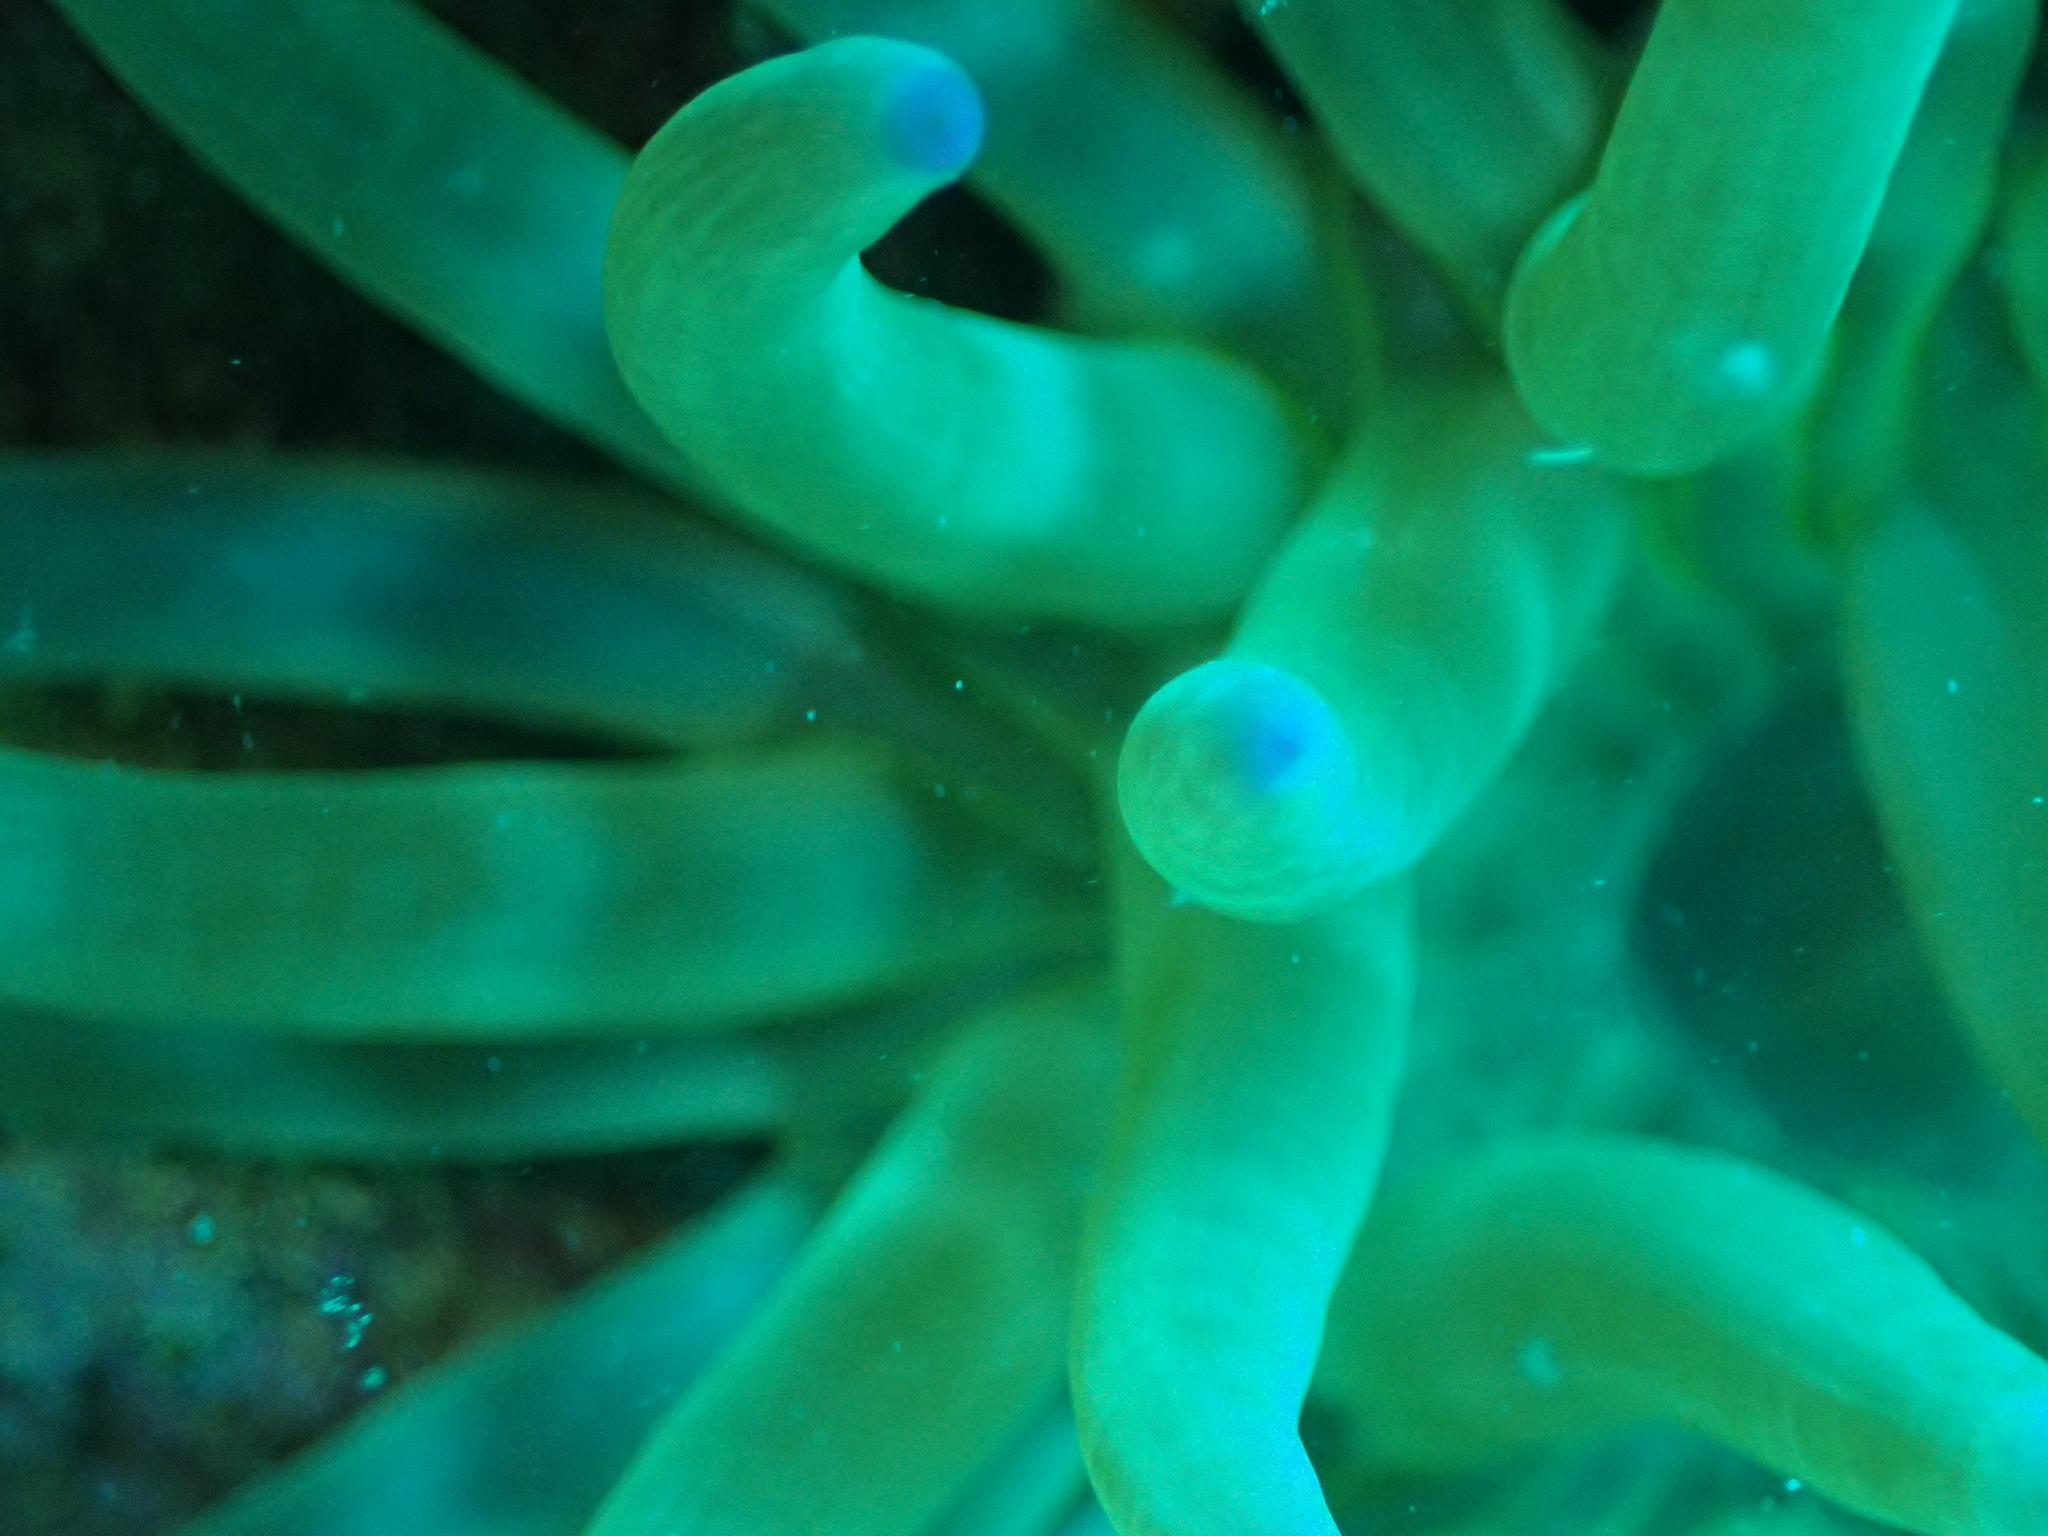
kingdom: Animalia
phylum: Cnidaria
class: Anthozoa
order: Actiniaria
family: Actiniidae
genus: Cribrinopsis
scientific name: Cribrinopsis crassa
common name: Fat anemone
